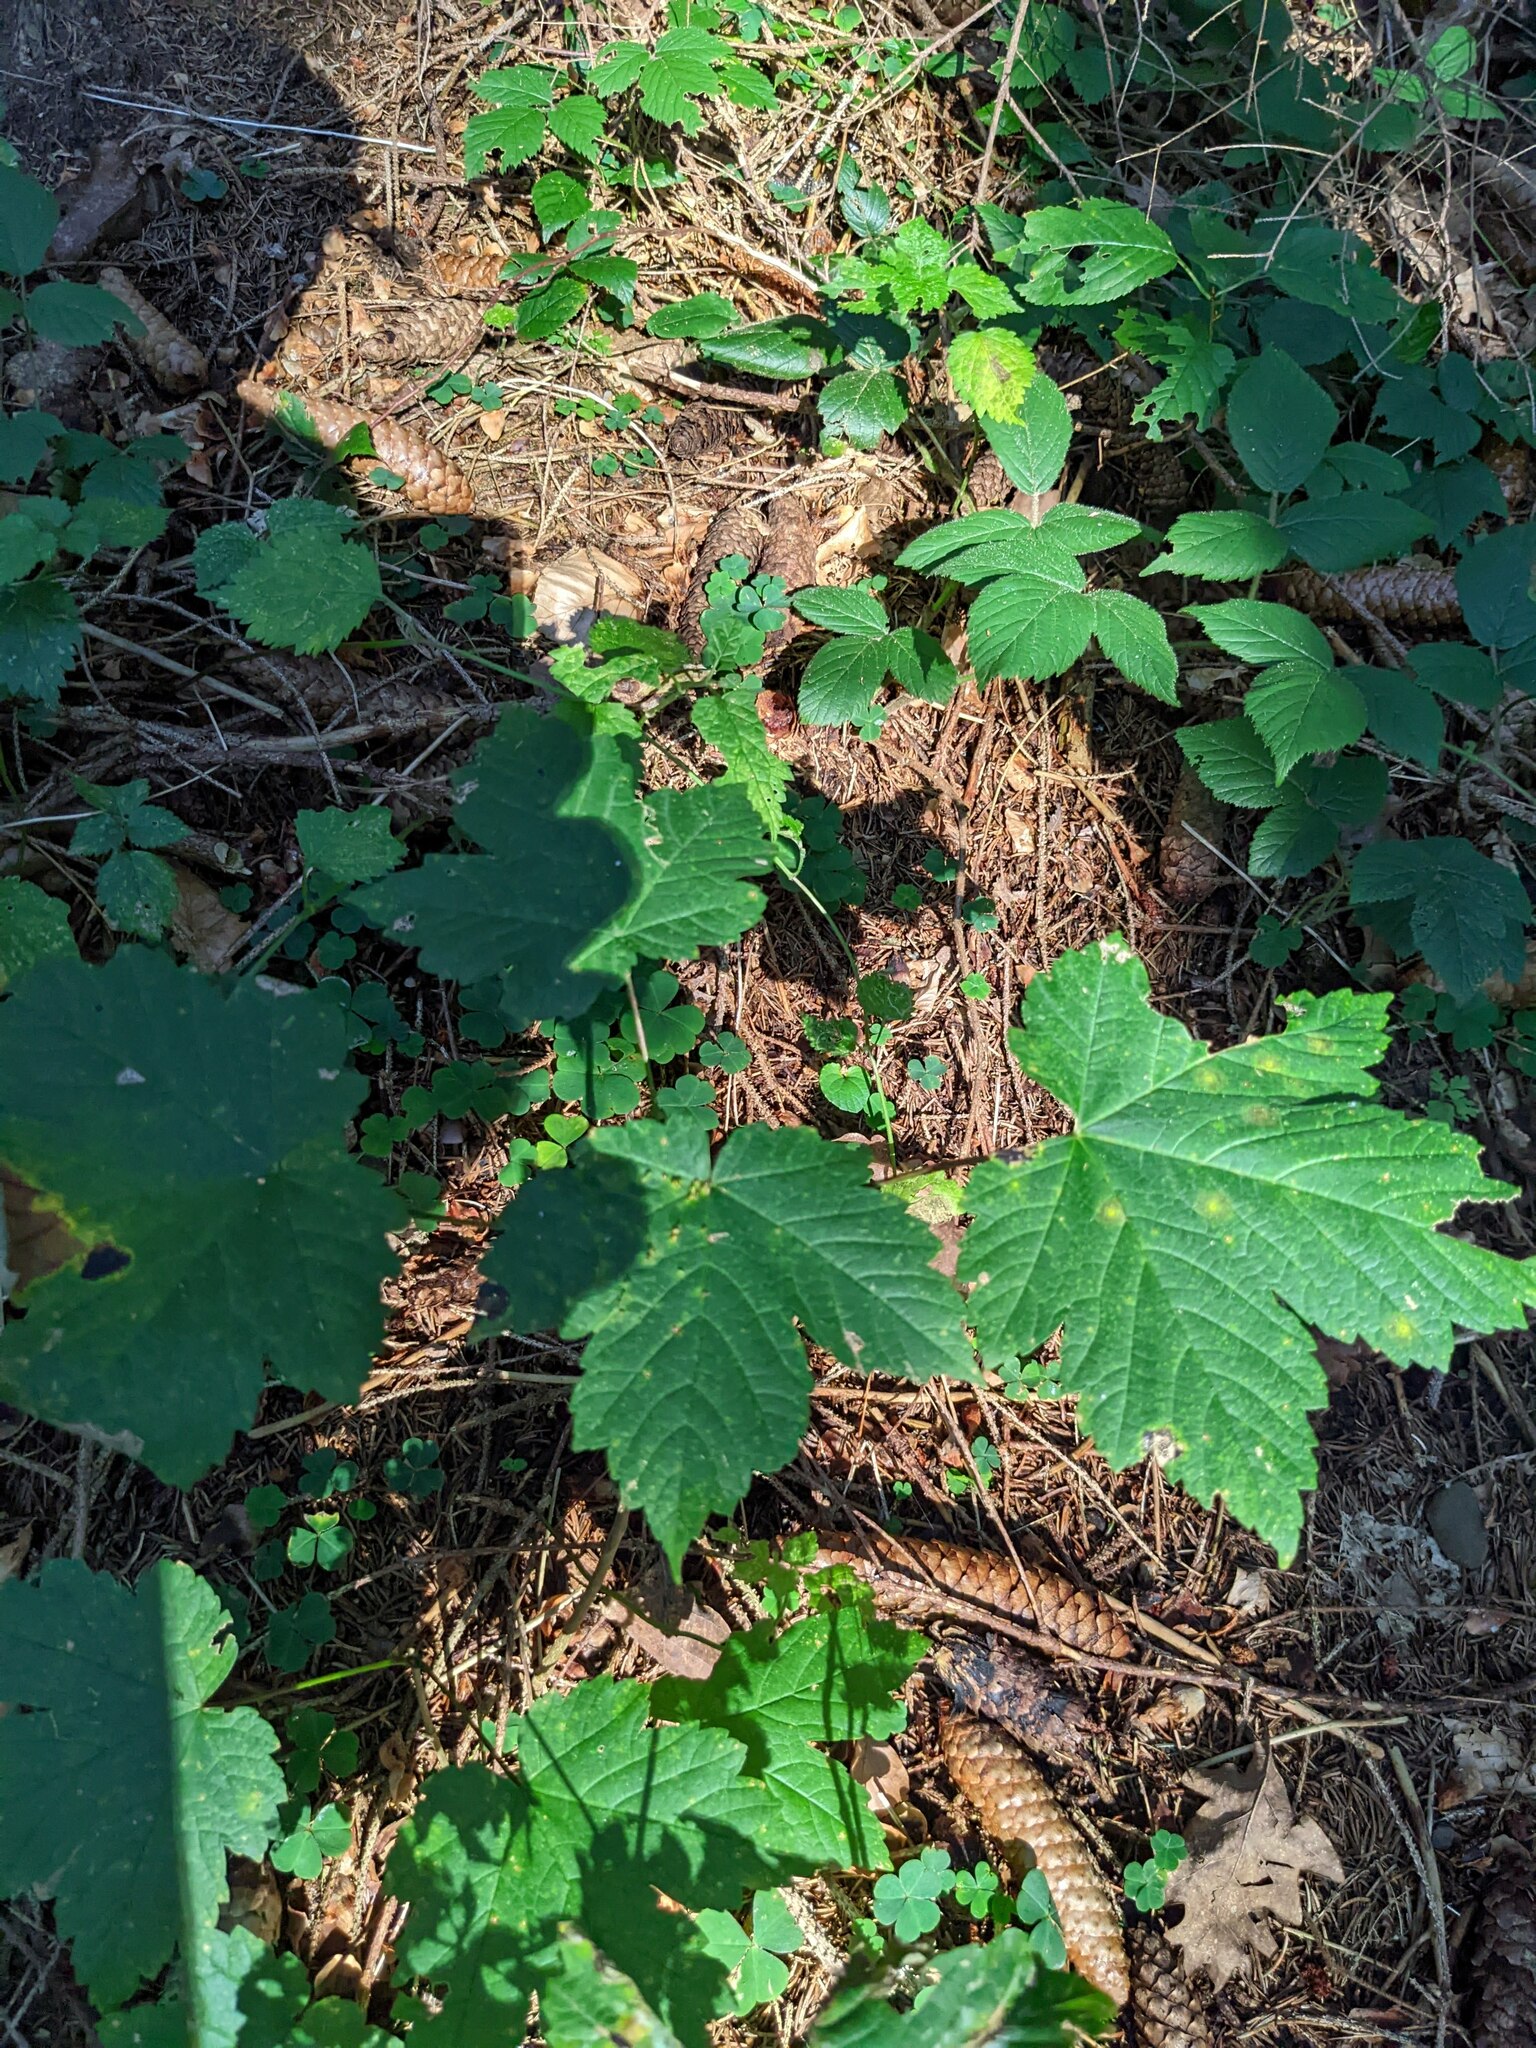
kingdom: Plantae
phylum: Tracheophyta
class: Magnoliopsida
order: Sapindales
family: Sapindaceae
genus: Acer
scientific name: Acer pseudoplatanus
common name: Sycamore
